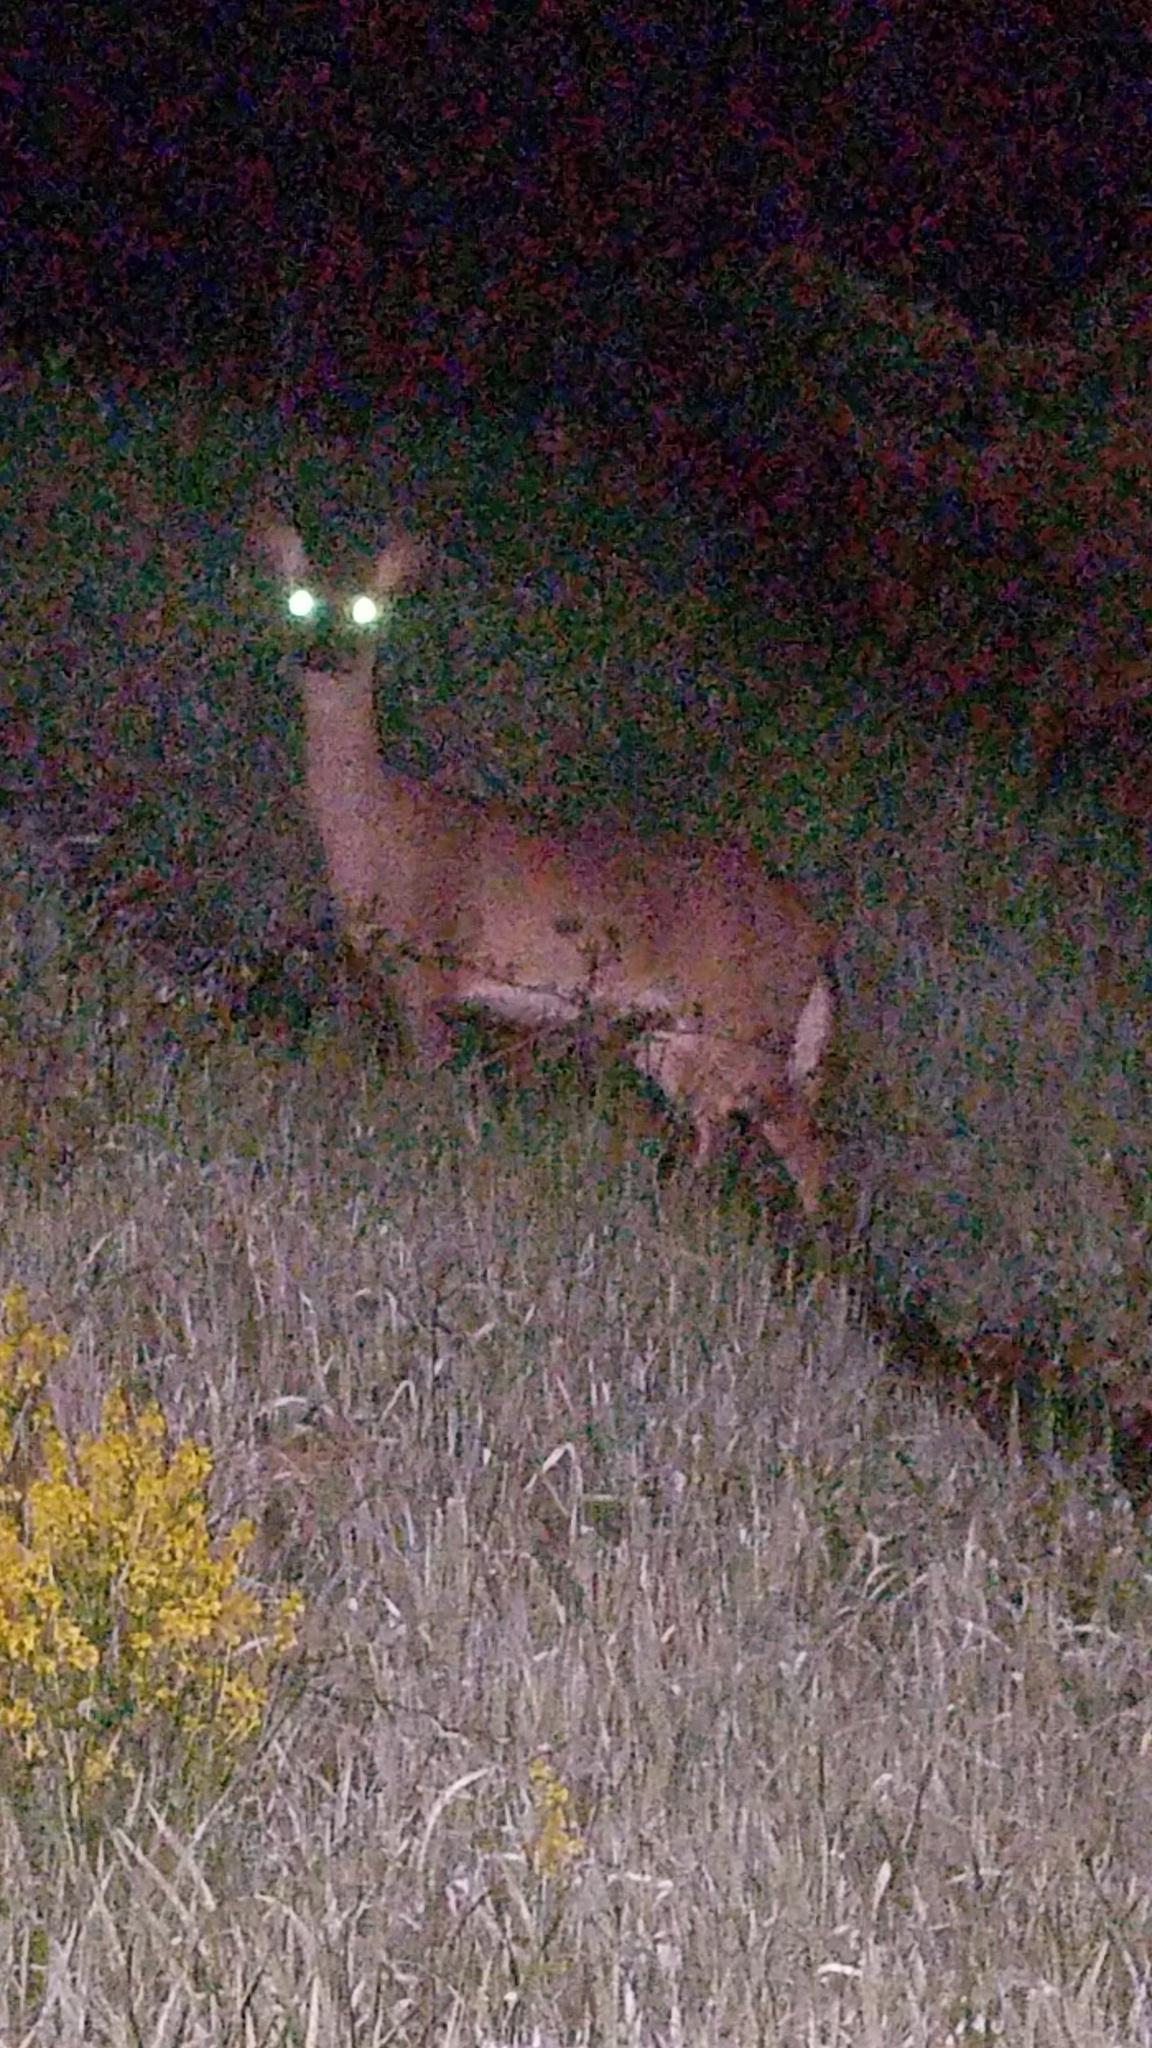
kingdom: Animalia
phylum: Chordata
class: Mammalia
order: Artiodactyla
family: Cervidae
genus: Odocoileus
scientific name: Odocoileus virginianus
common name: White-tailed deer
